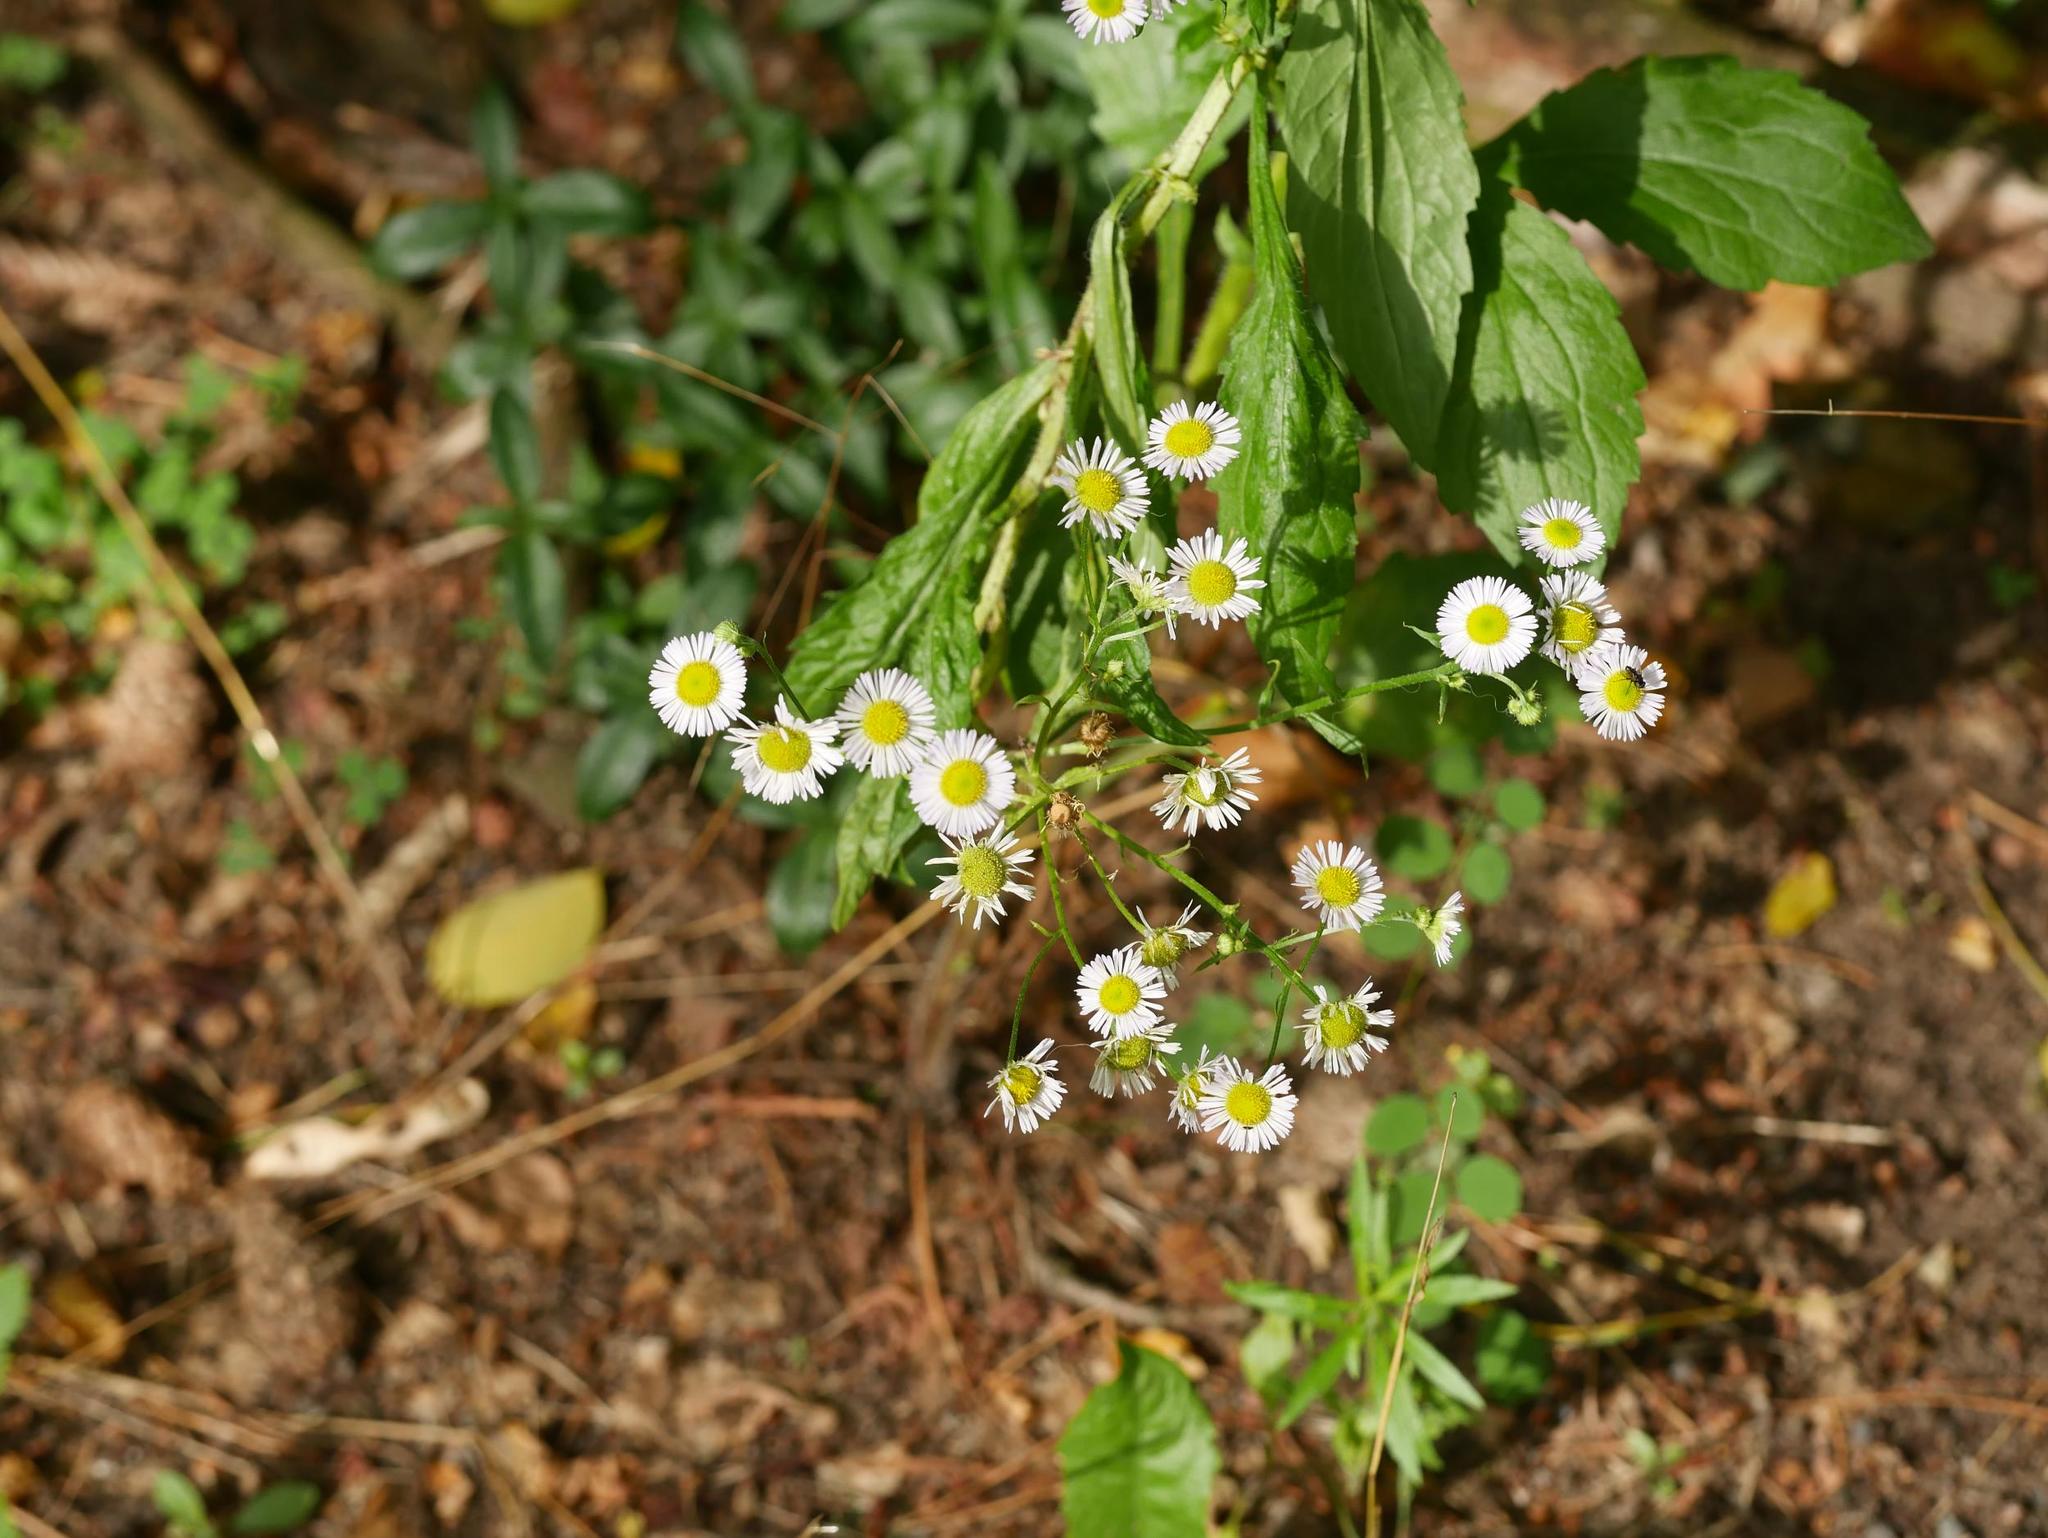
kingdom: Plantae
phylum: Tracheophyta
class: Magnoliopsida
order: Asterales
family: Asteraceae
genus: Erigeron
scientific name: Erigeron annuus
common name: Tall fleabane
